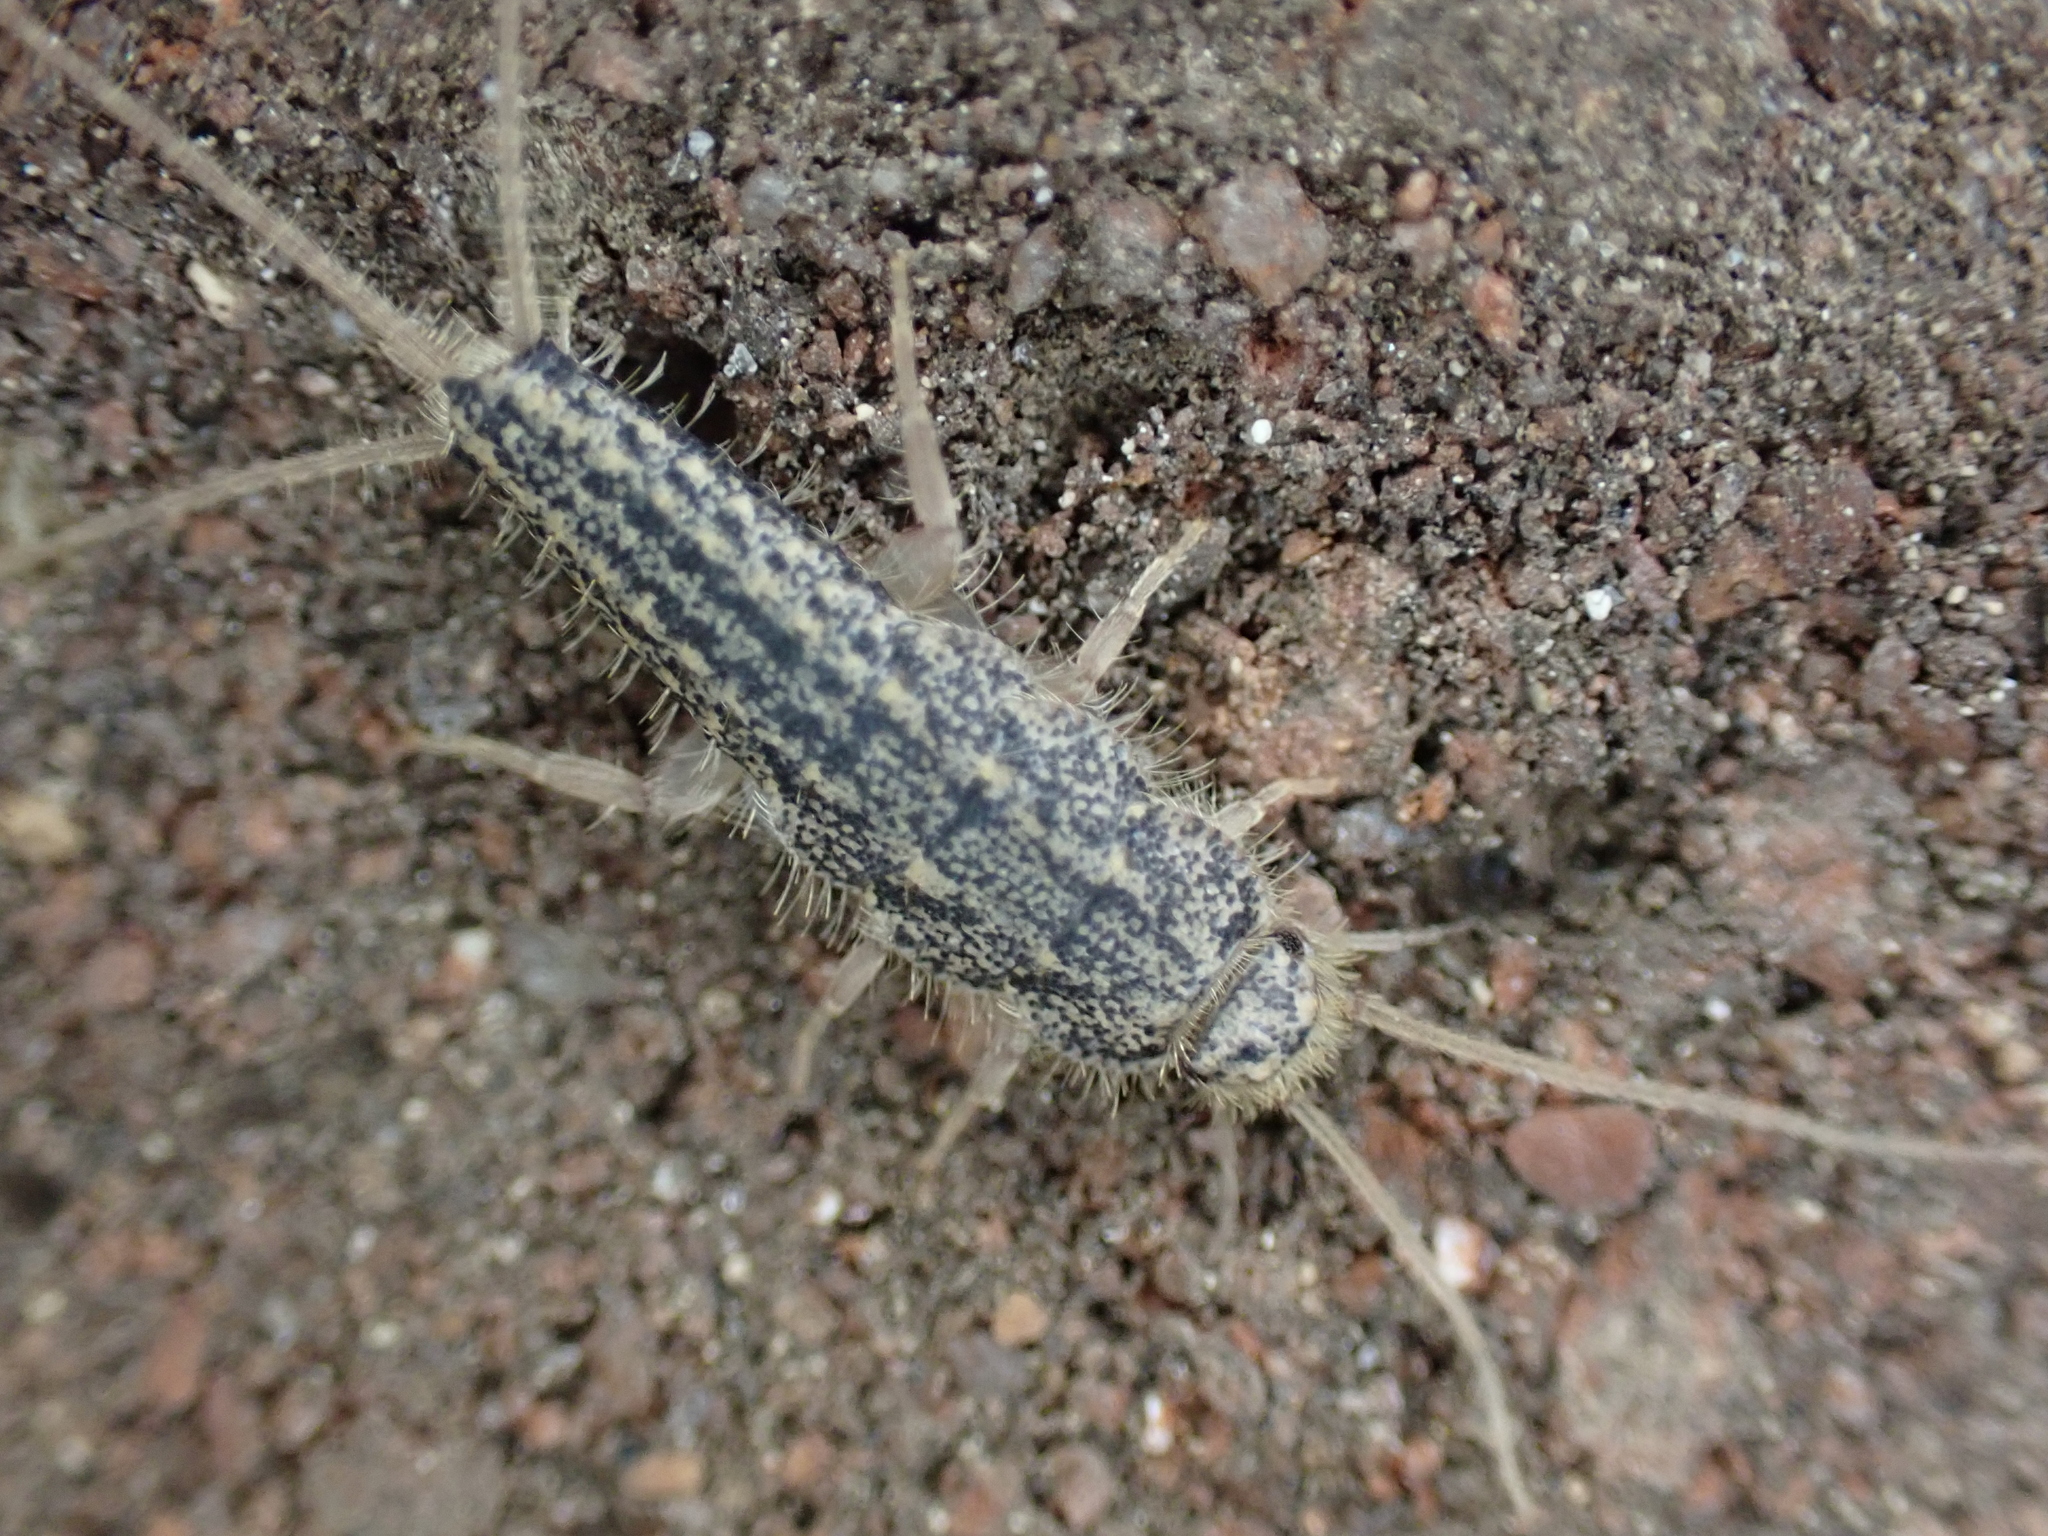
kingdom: Animalia
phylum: Arthropoda
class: Insecta
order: Zygentoma
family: Lepismatidae
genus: Ctenolepisma
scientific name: Ctenolepisma lineata
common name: Four-lined silverfish
